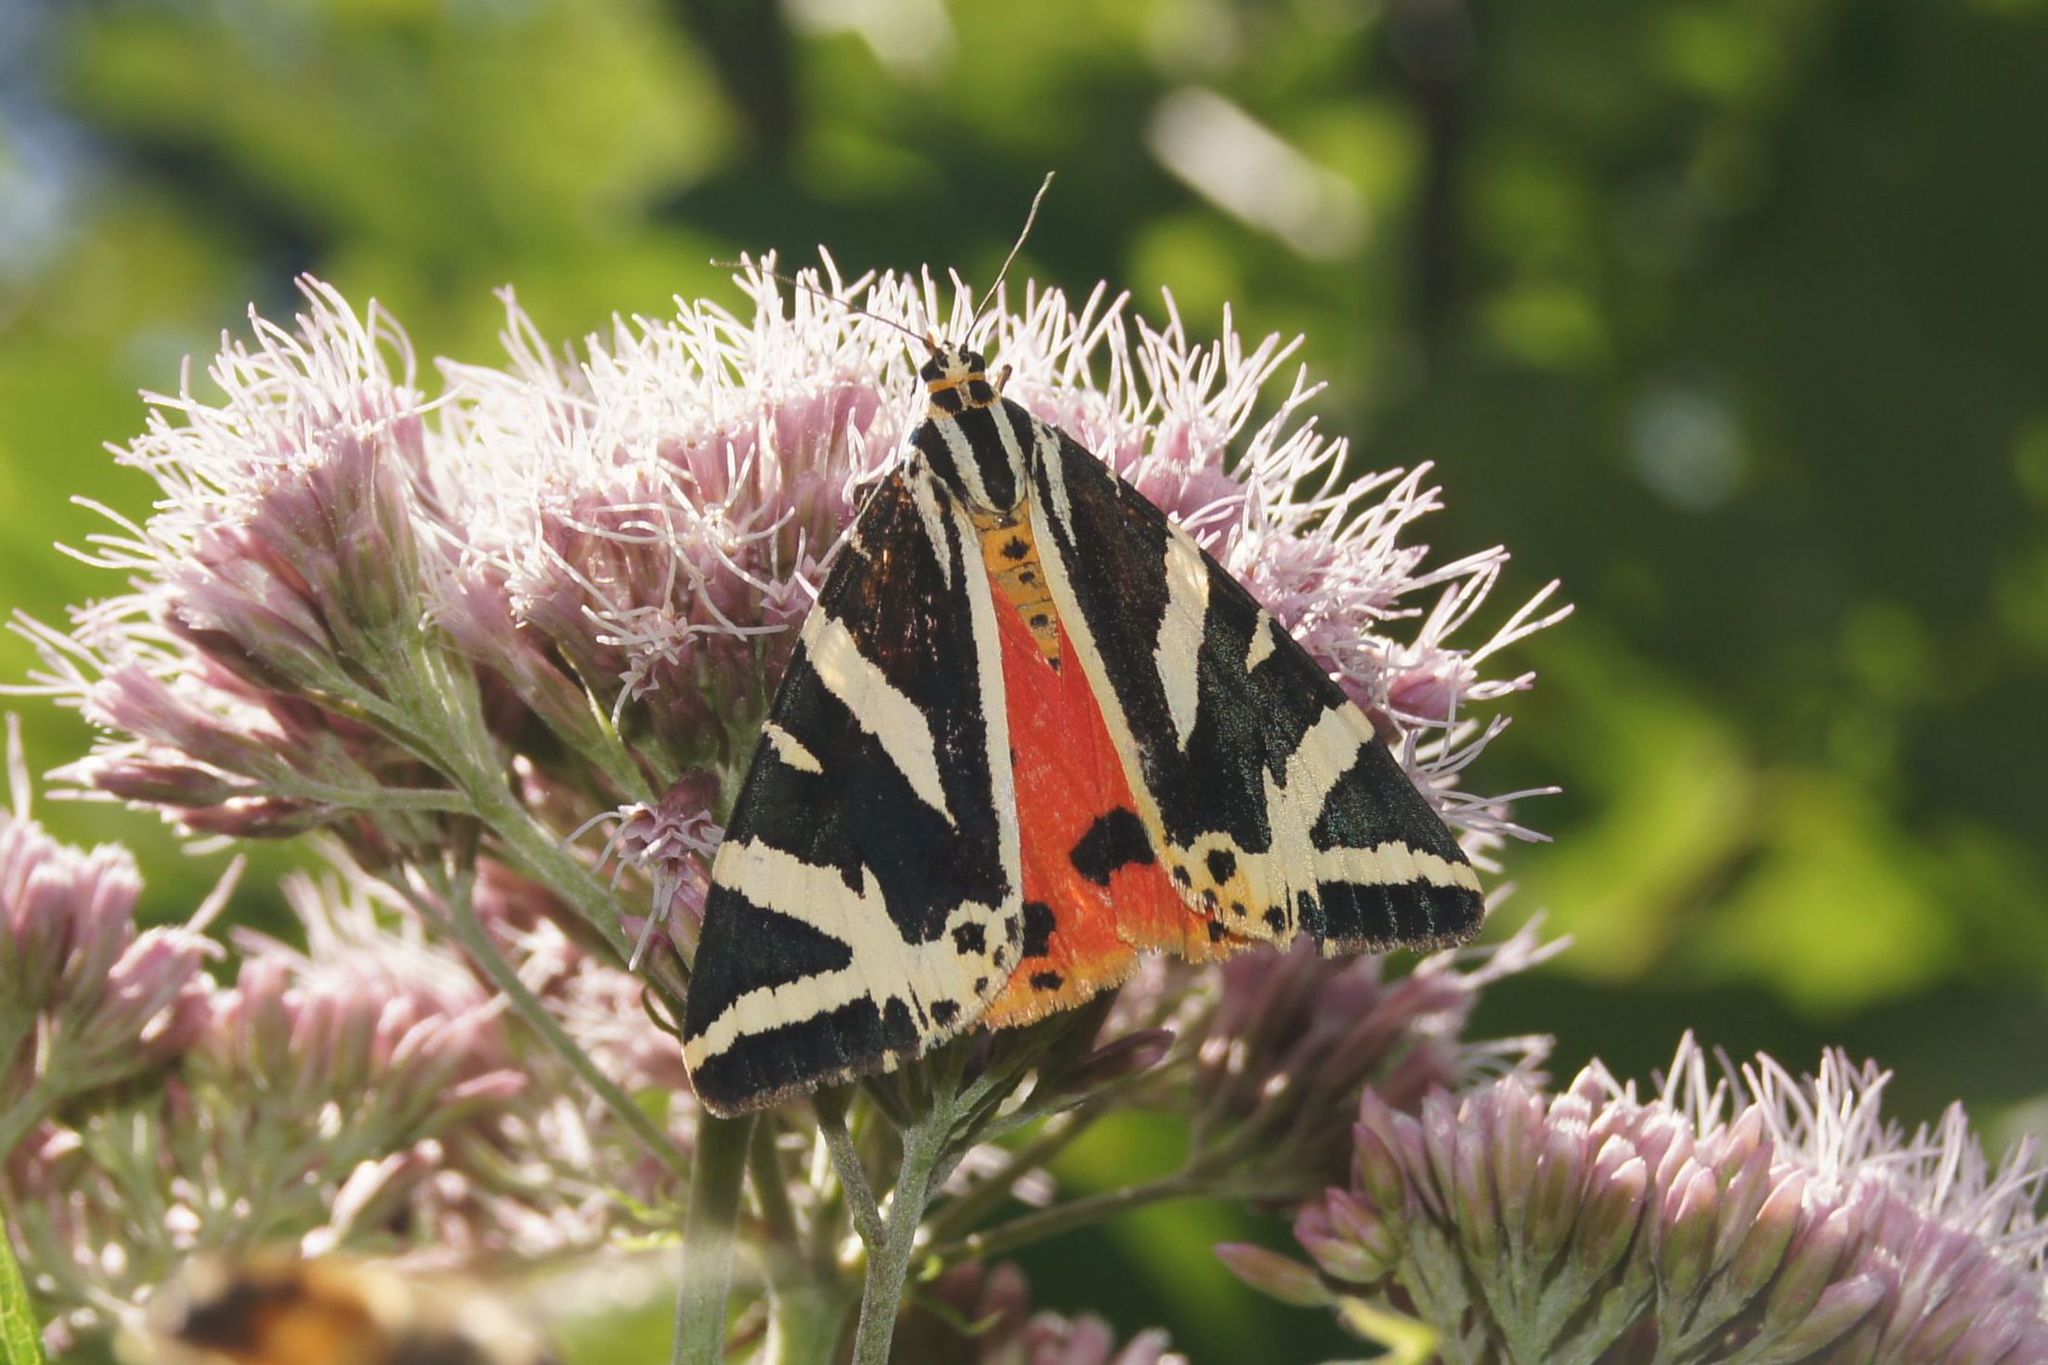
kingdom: Animalia
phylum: Arthropoda
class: Insecta
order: Lepidoptera
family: Erebidae
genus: Euplagia
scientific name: Euplagia quadripunctaria
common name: Jersey tiger
